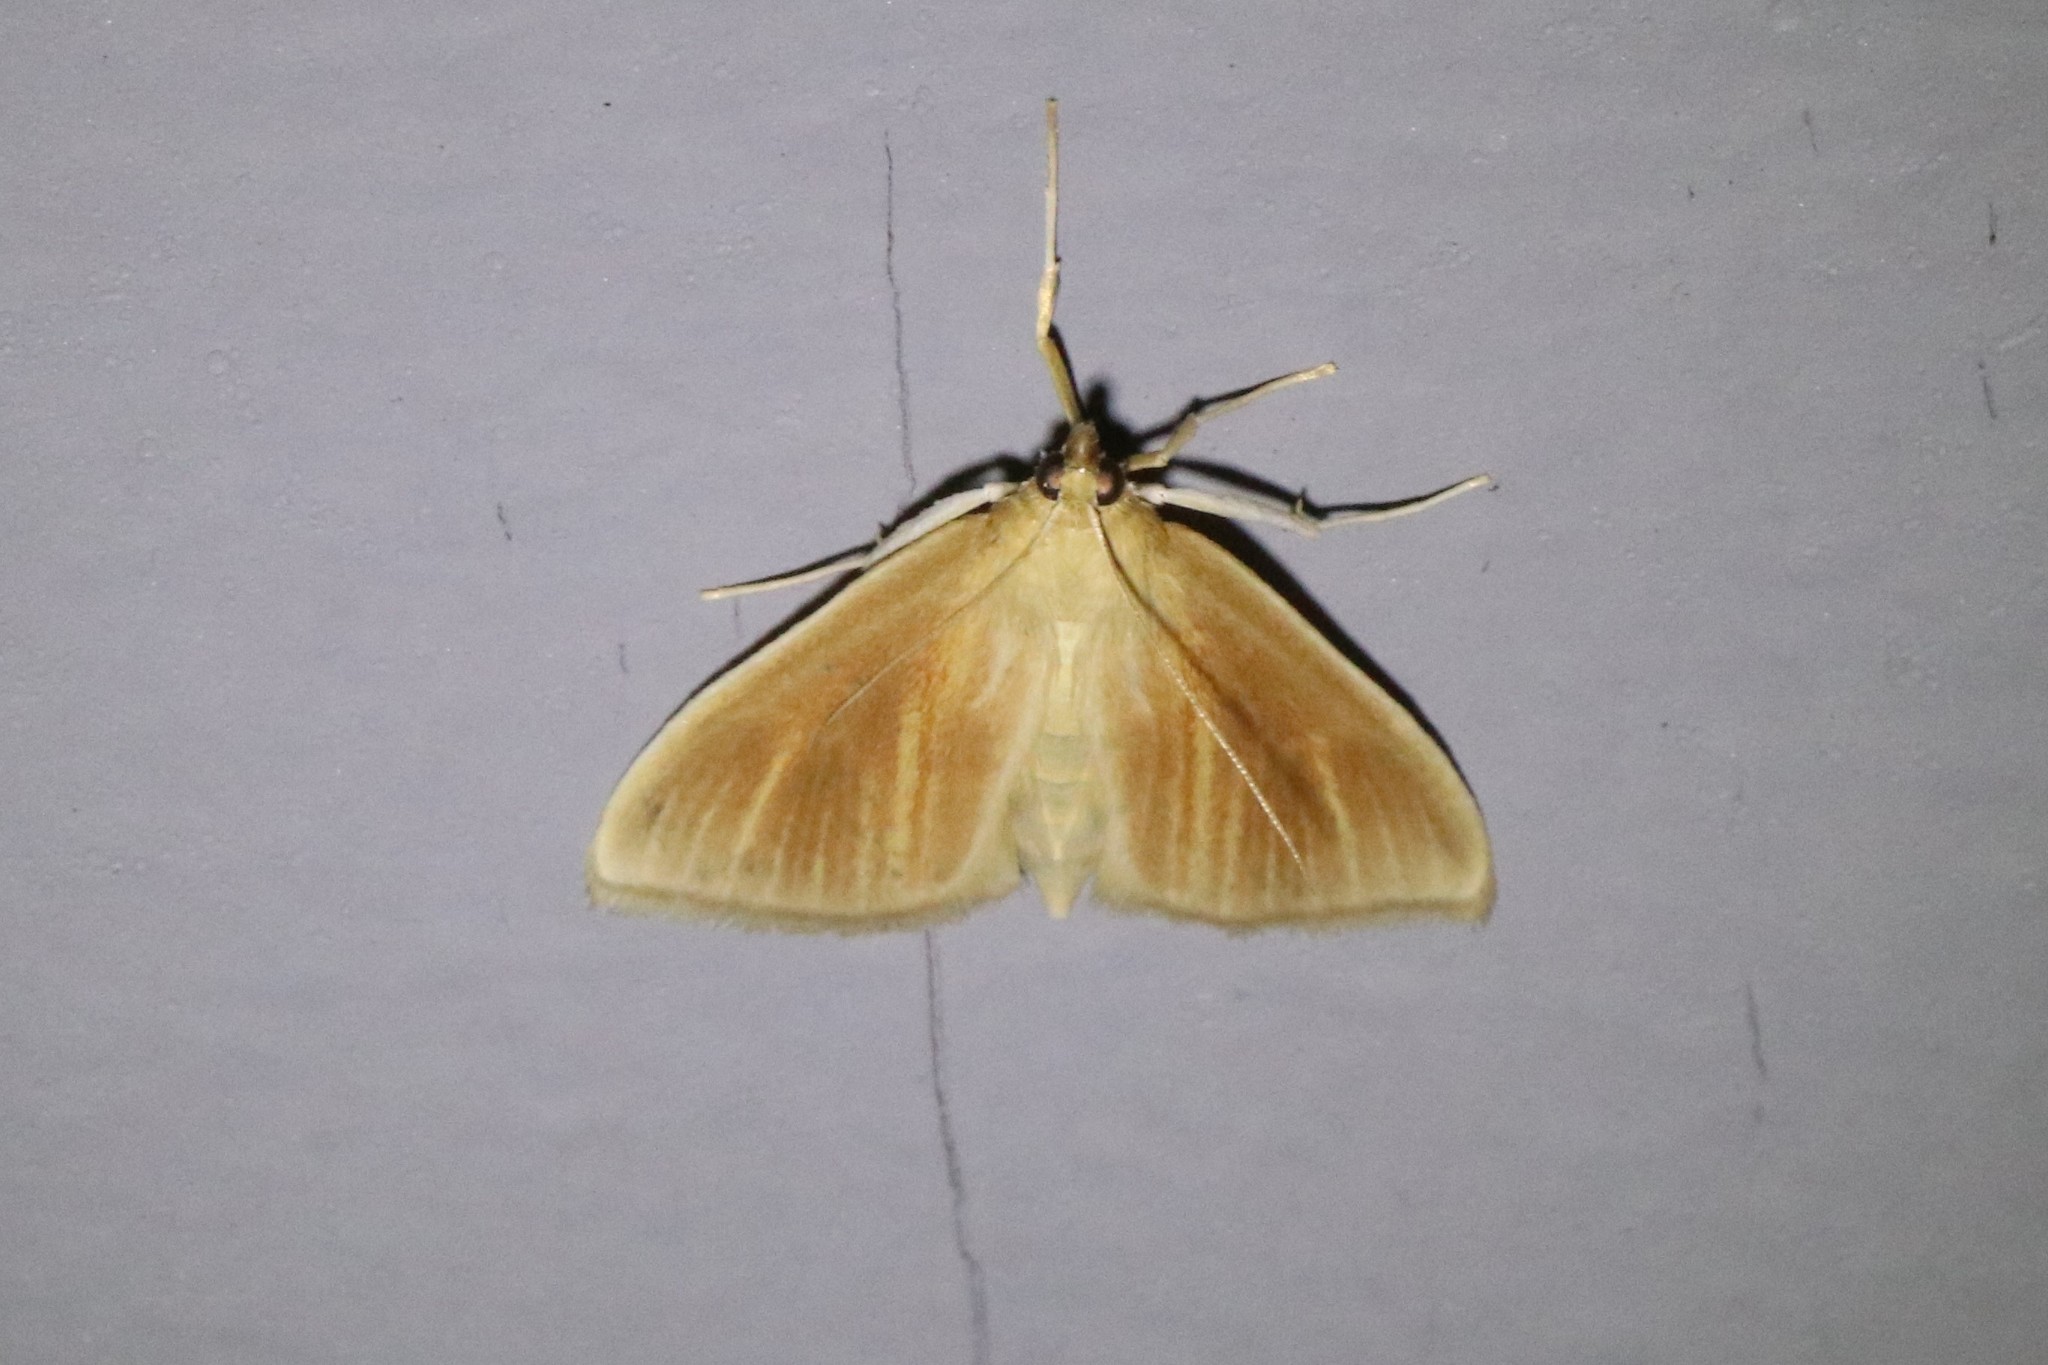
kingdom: Animalia
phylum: Arthropoda
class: Insecta
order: Lepidoptera
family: Crambidae
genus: Nascia
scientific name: Nascia acutellus
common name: Streaked orange moth
